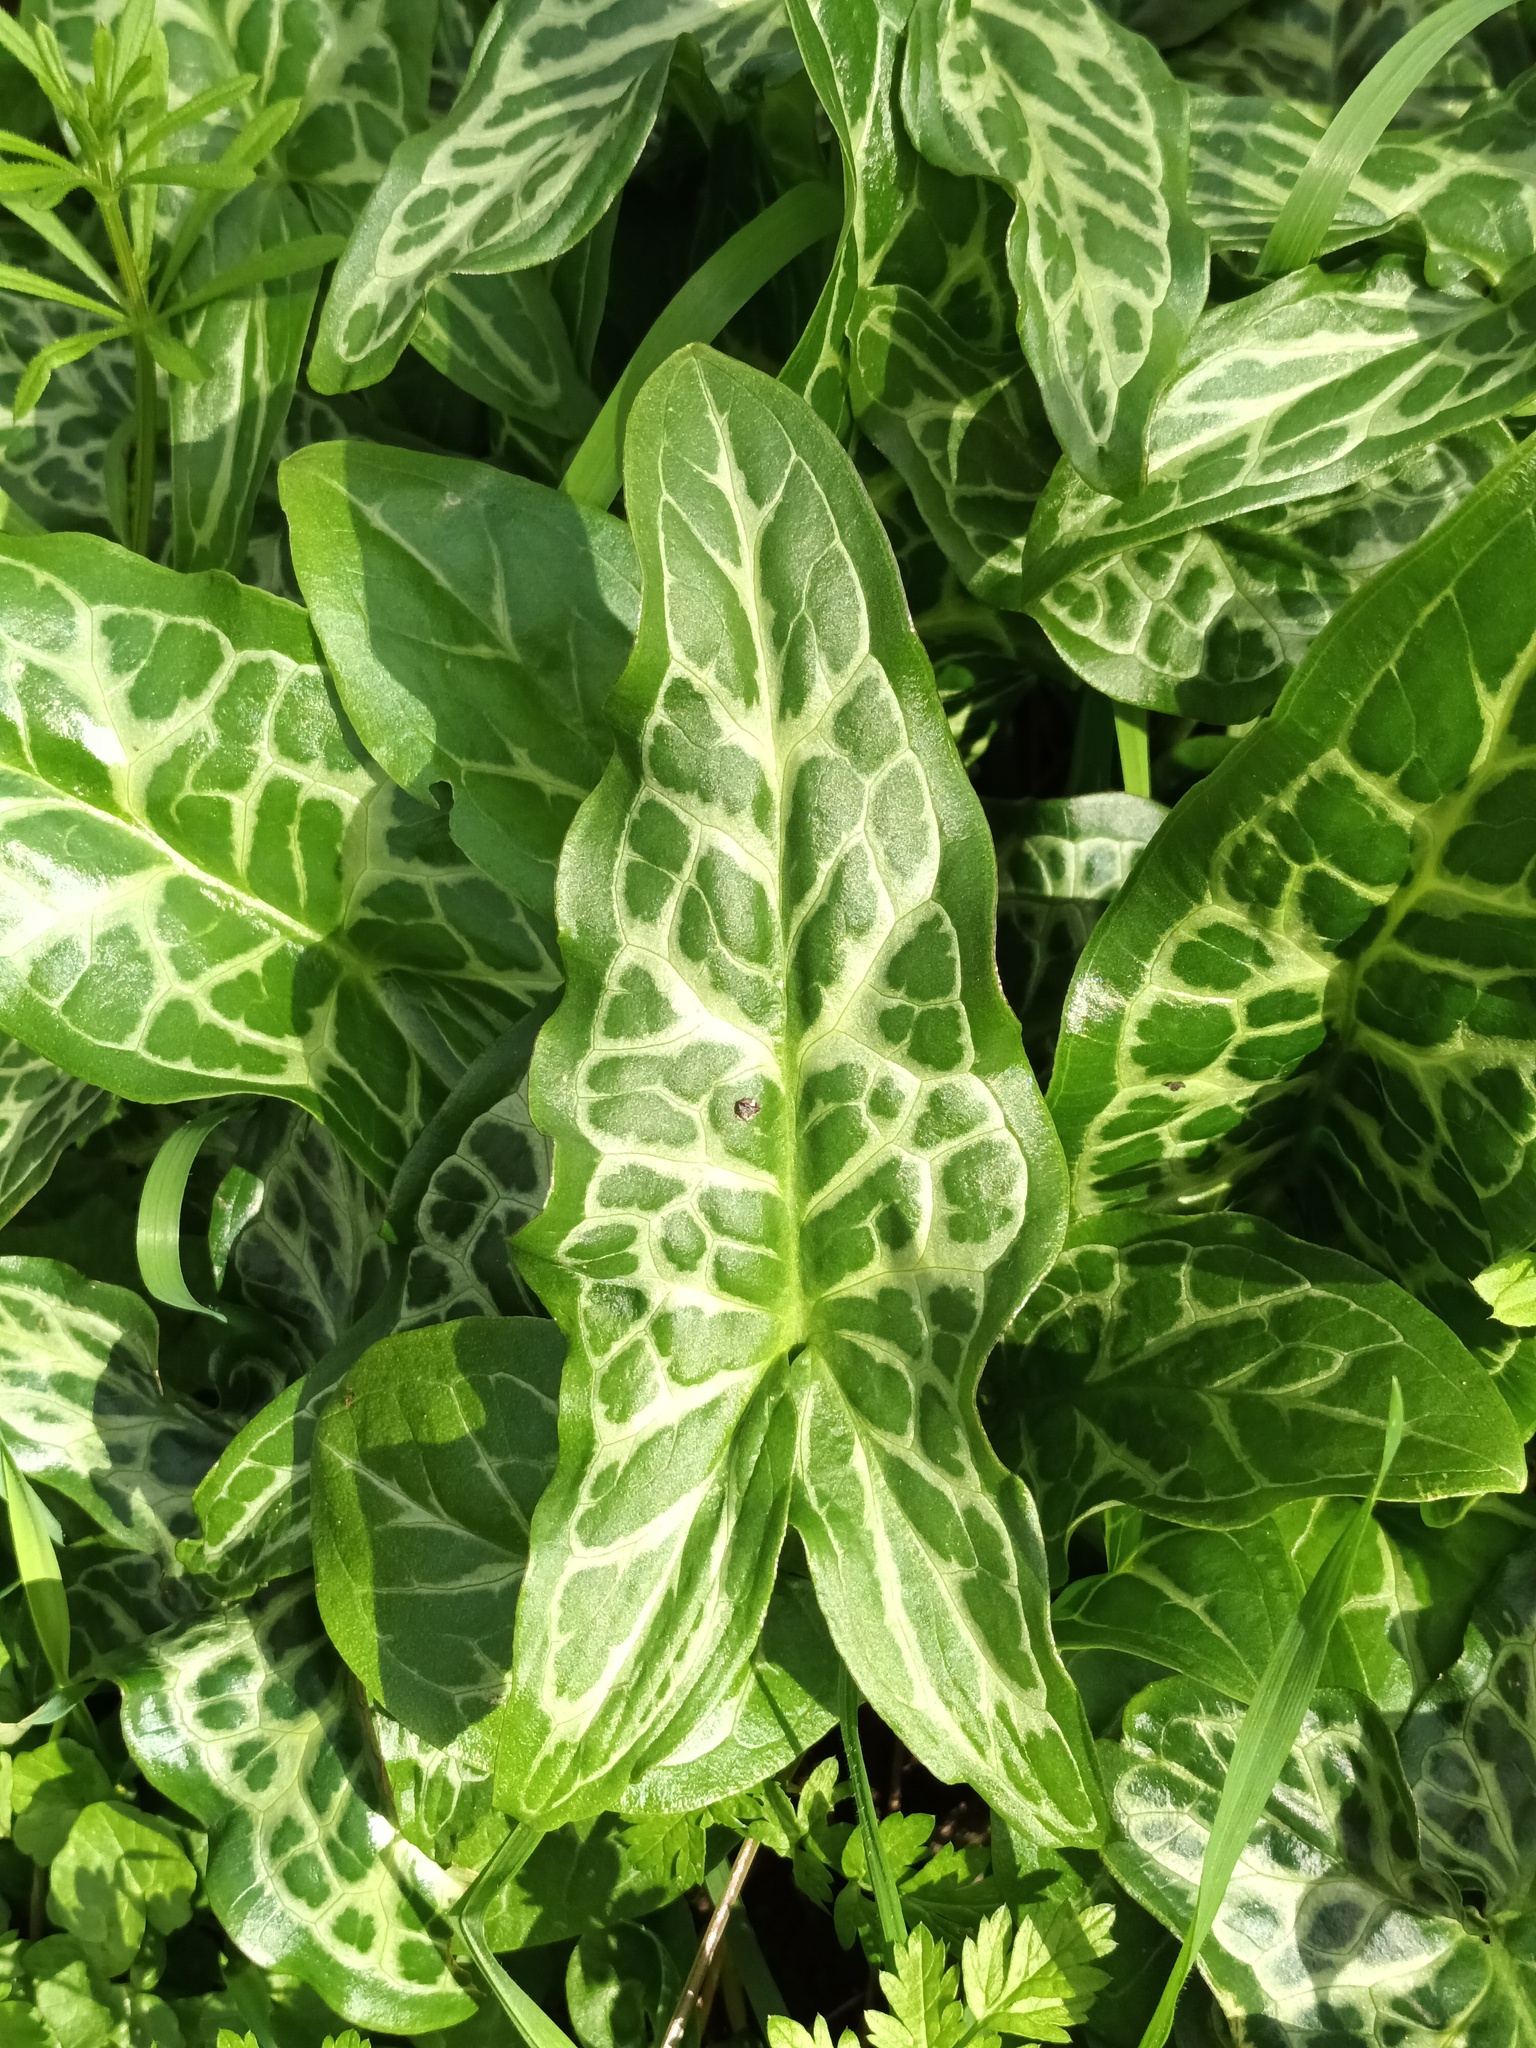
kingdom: Plantae
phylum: Tracheophyta
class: Liliopsida
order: Alismatales
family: Araceae
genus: Arum
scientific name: Arum italicum
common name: Italian lords-and-ladies
